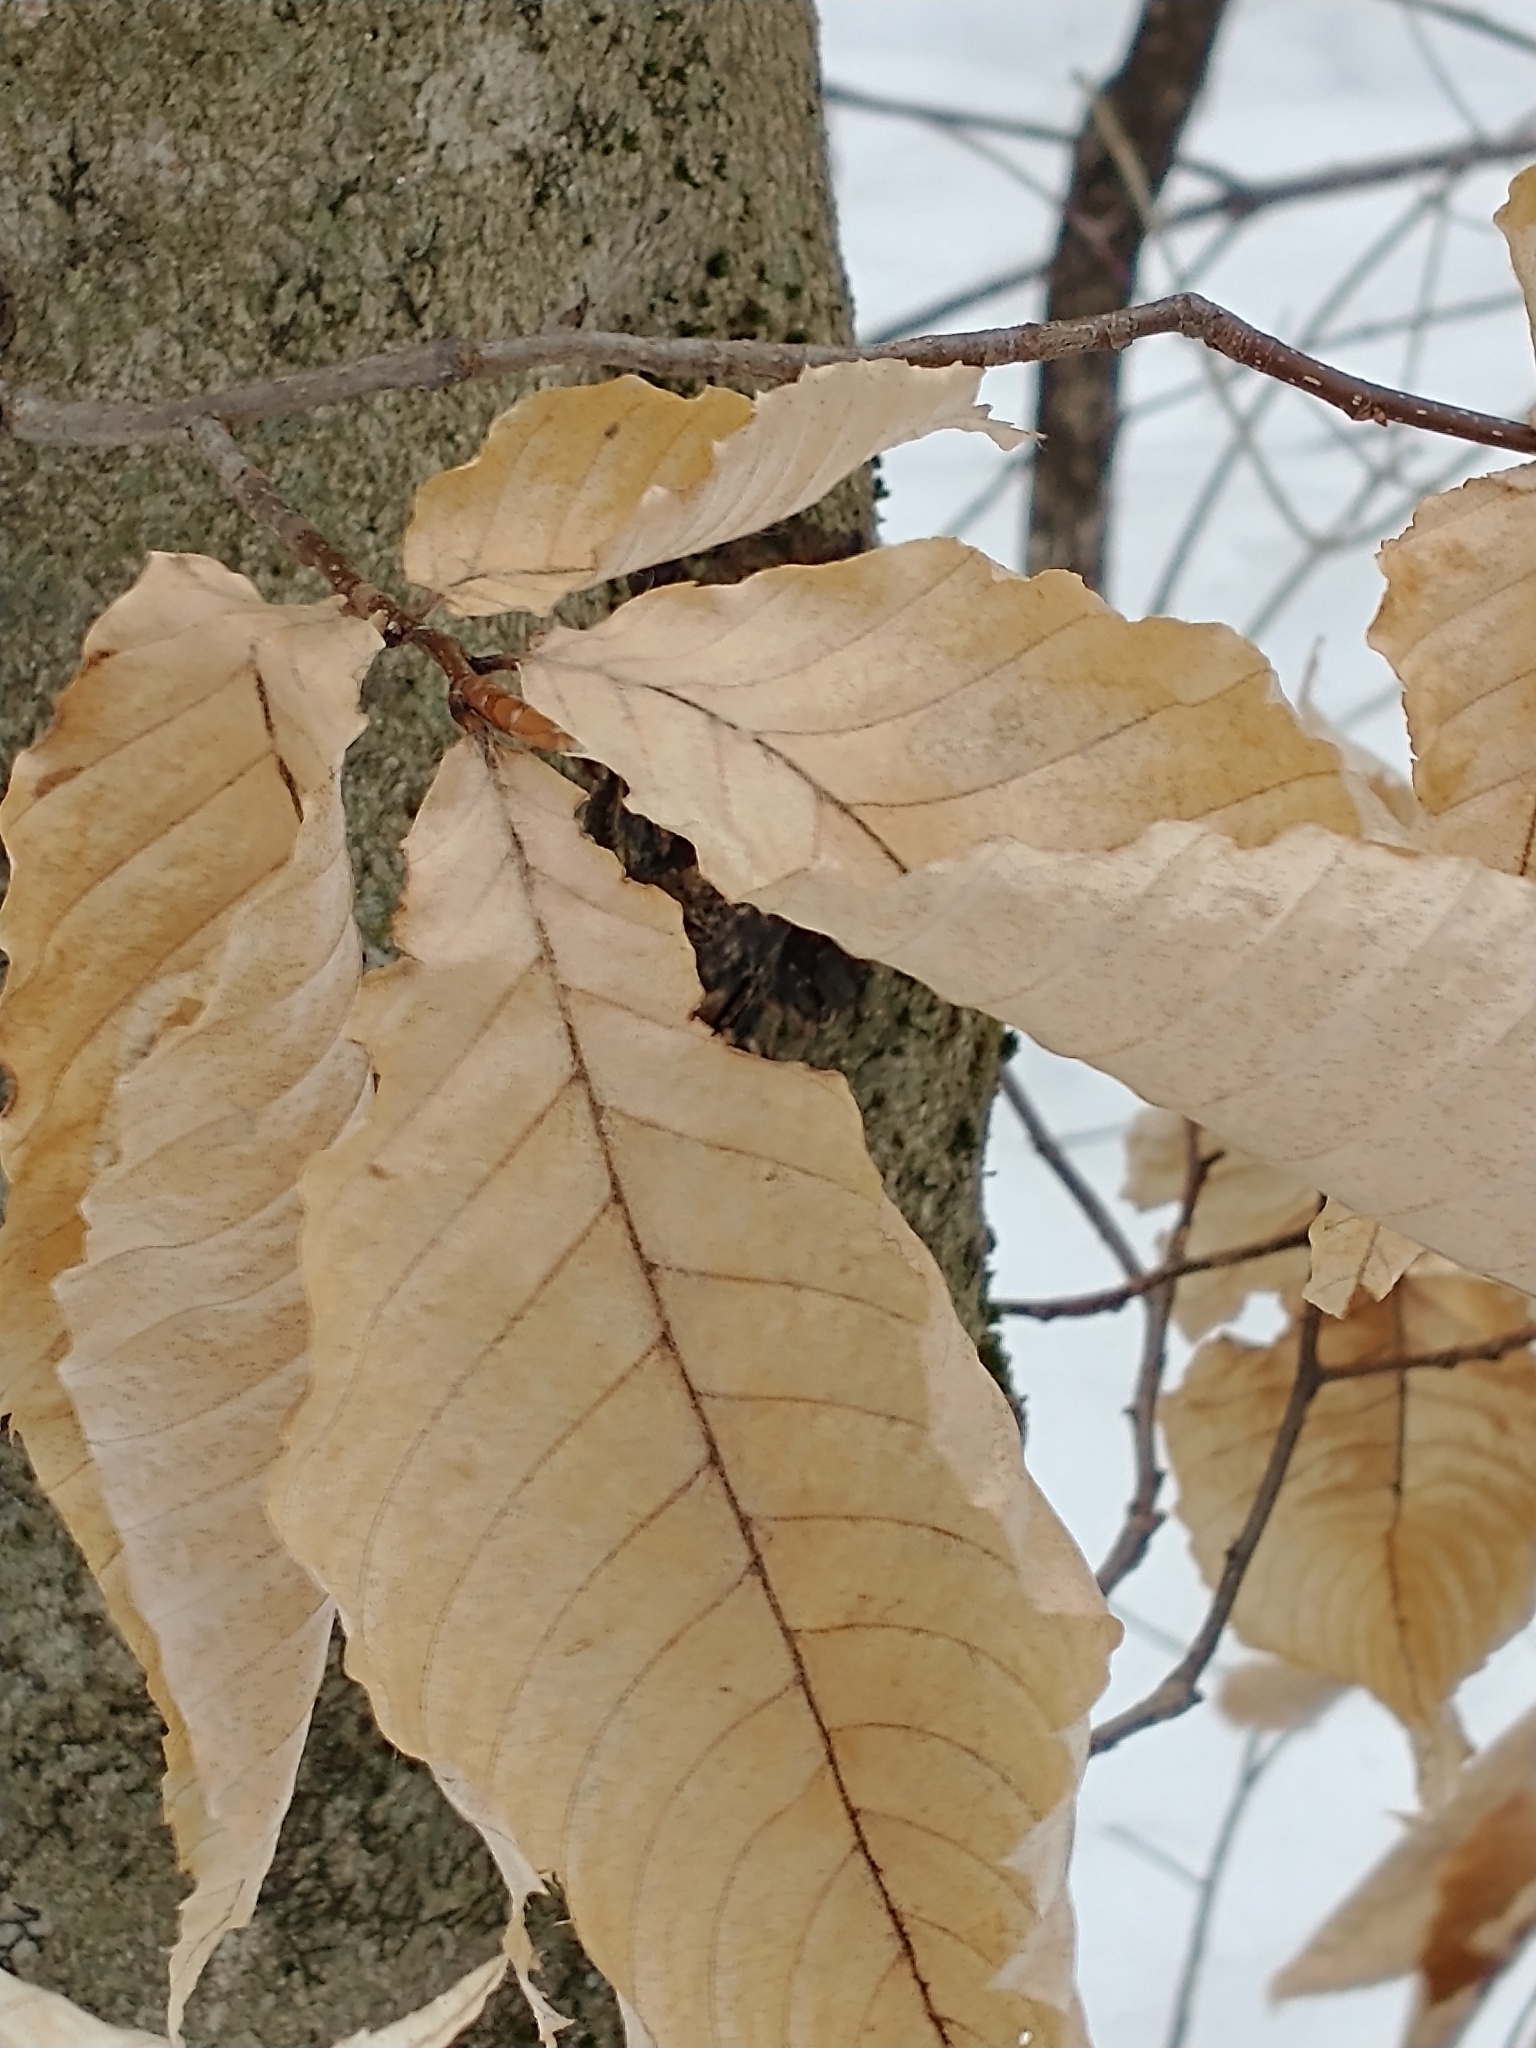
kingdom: Plantae
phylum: Tracheophyta
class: Magnoliopsida
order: Fagales
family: Fagaceae
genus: Fagus
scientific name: Fagus grandifolia
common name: American beech
